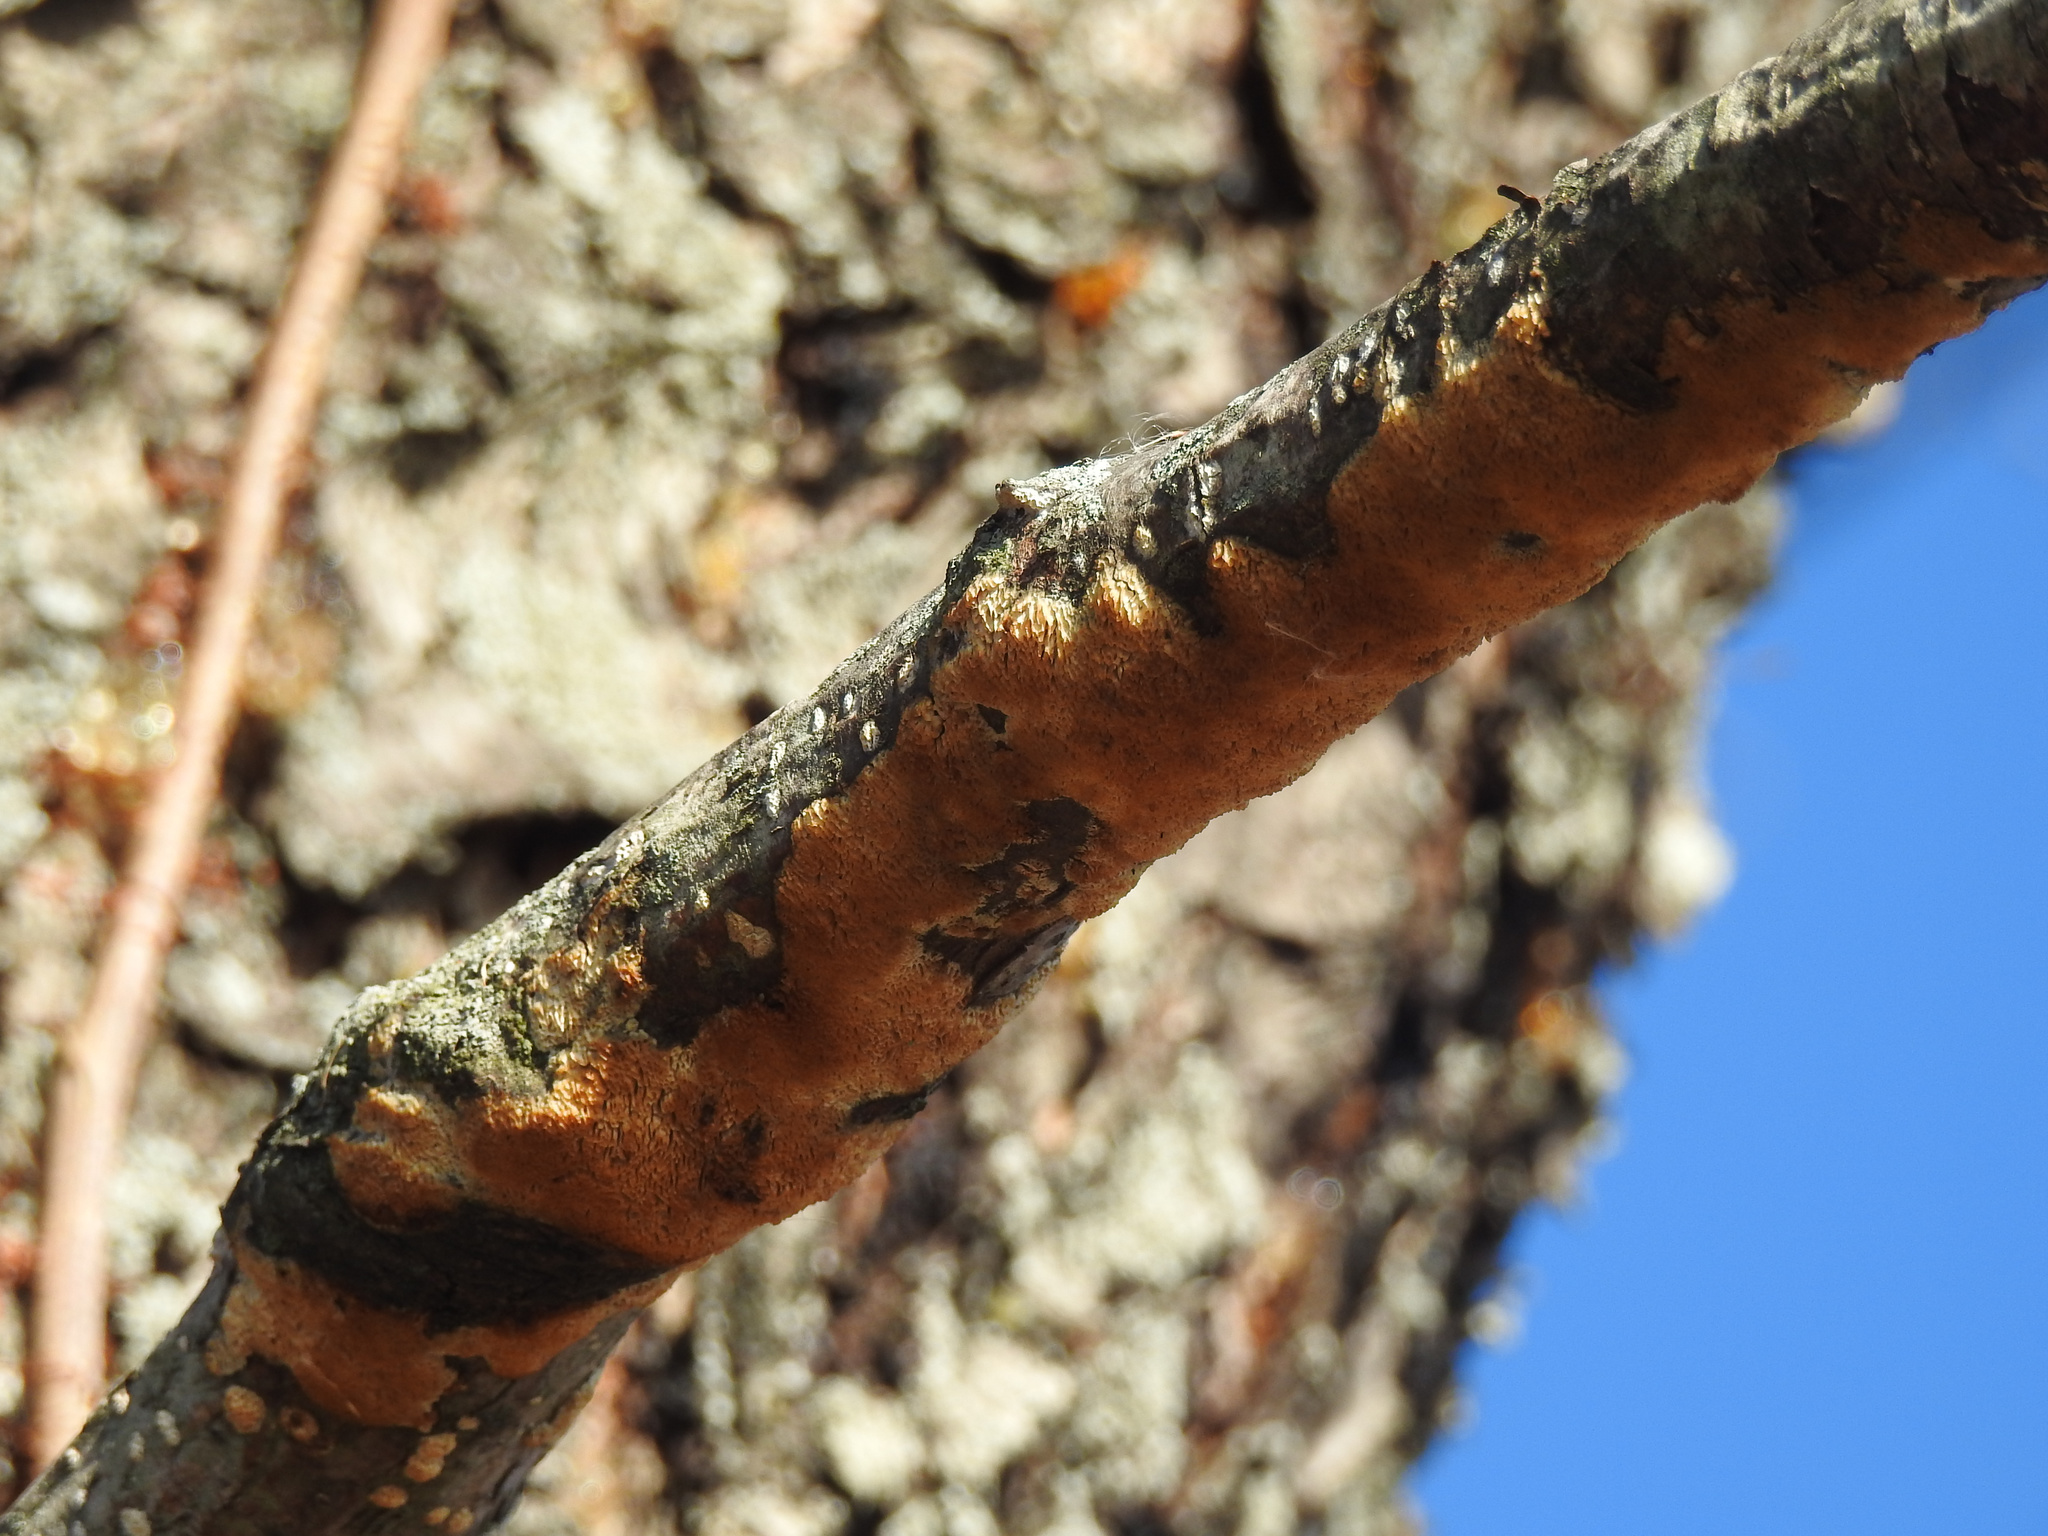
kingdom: Fungi
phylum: Basidiomycota
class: Agaricomycetes
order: Polyporales
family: Steccherinaceae
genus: Steccherinum
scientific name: Steccherinum ochraceum
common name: Ochre spreading tooth
